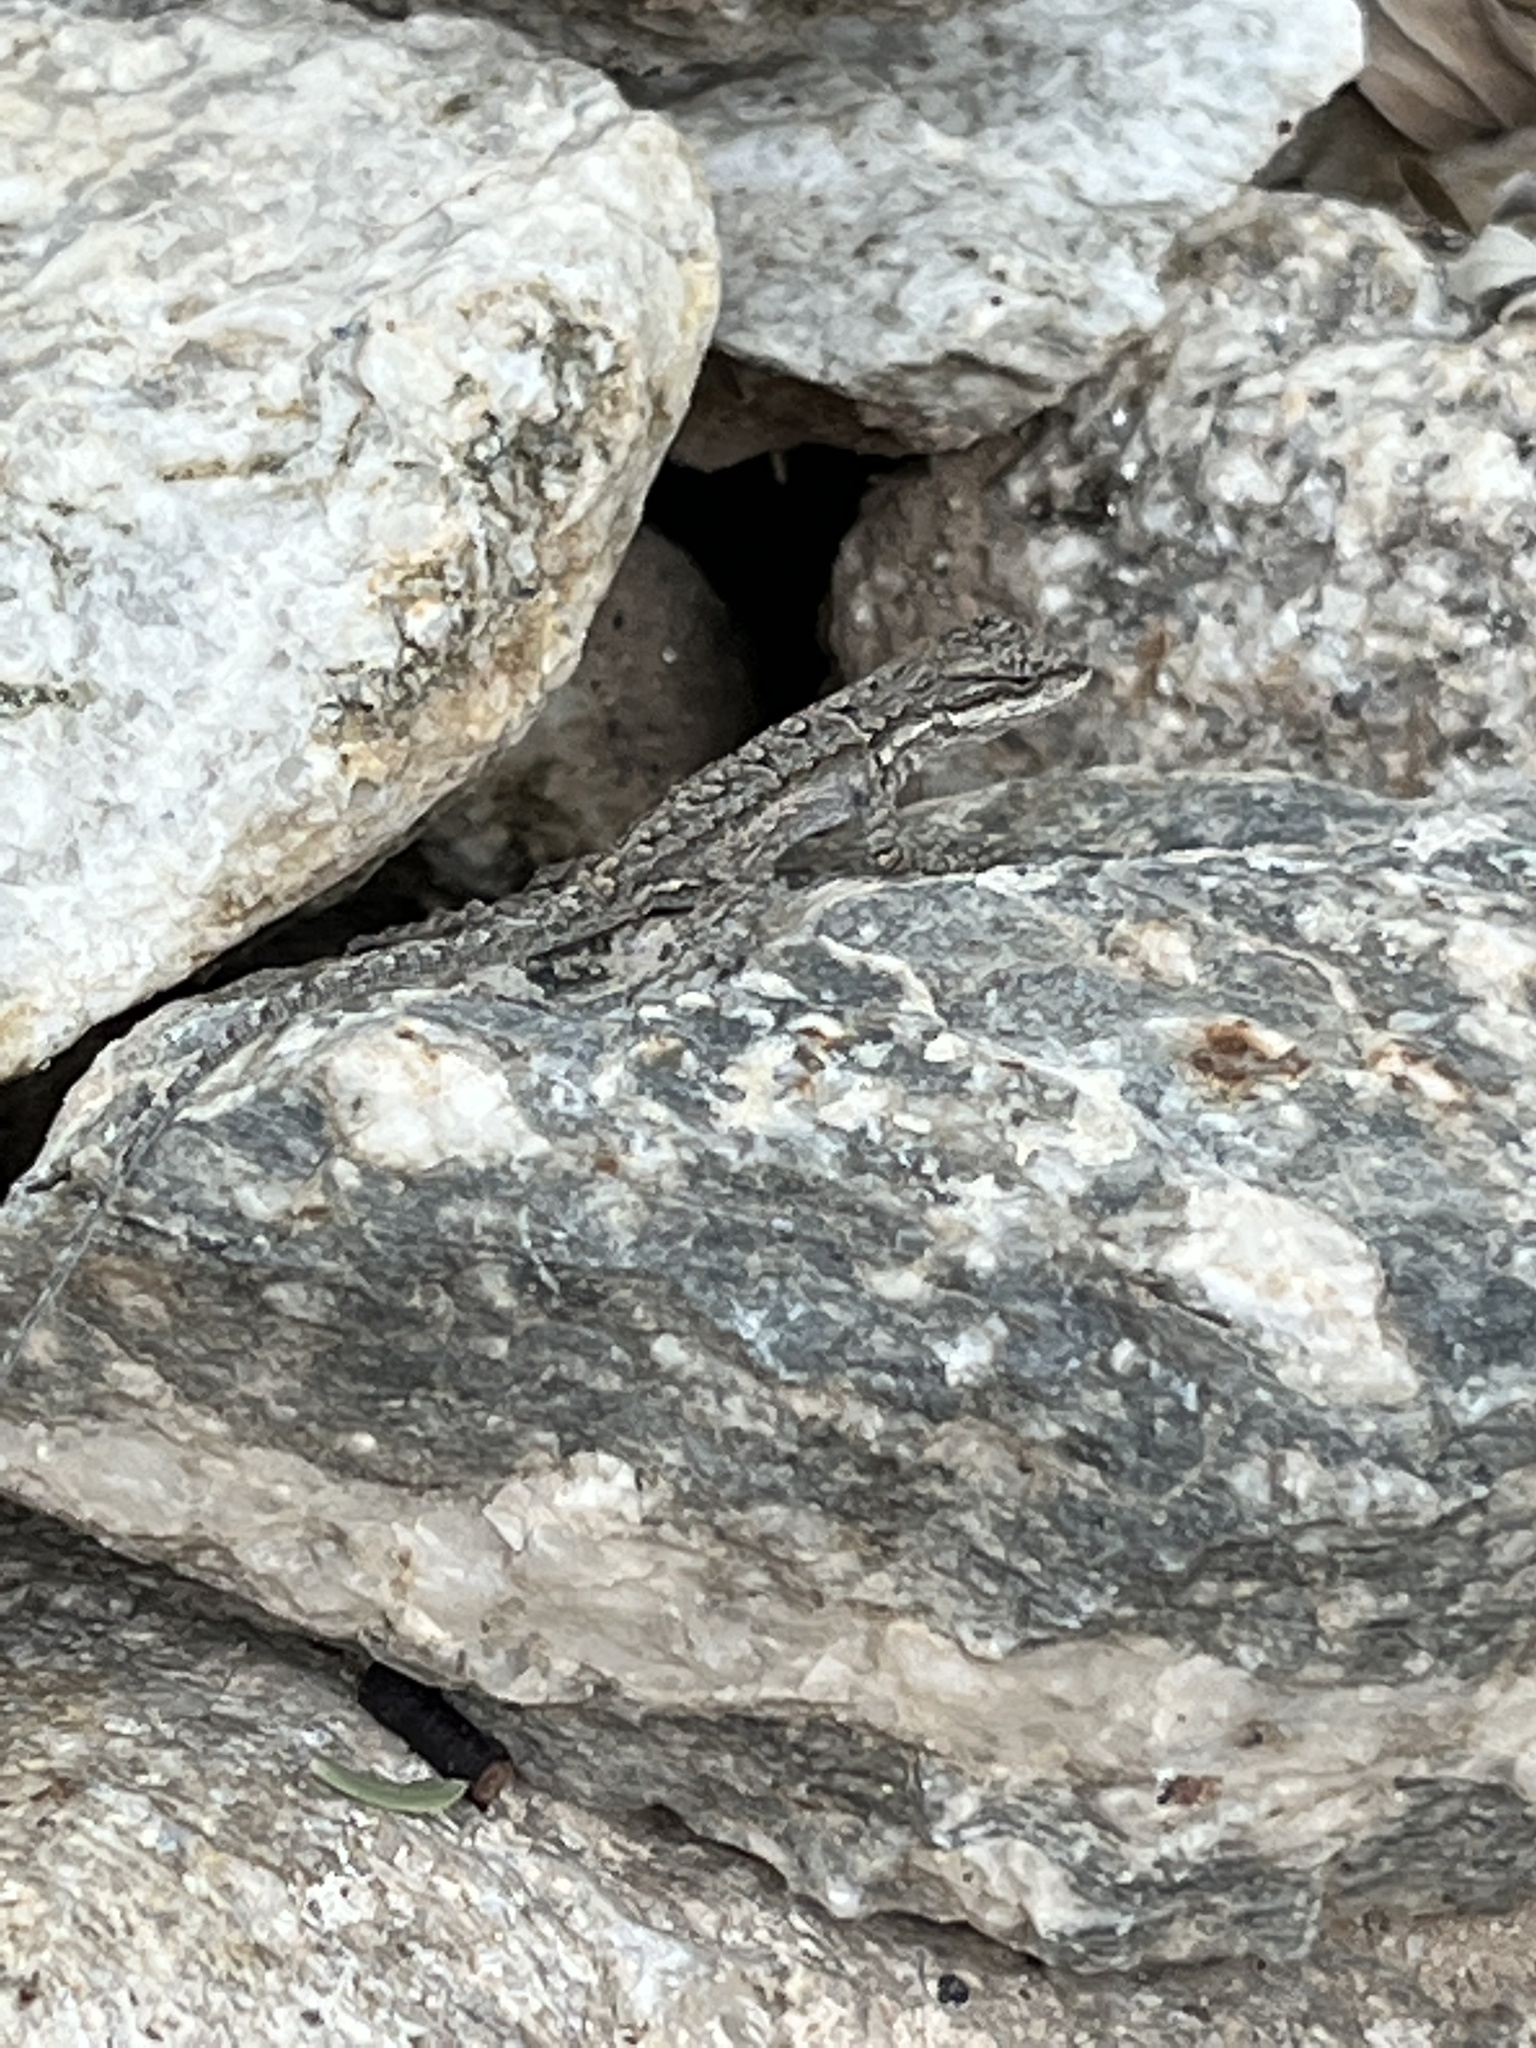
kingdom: Animalia
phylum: Chordata
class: Squamata
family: Phrynosomatidae
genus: Urosaurus
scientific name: Urosaurus ornatus
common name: Ornate tree lizard
